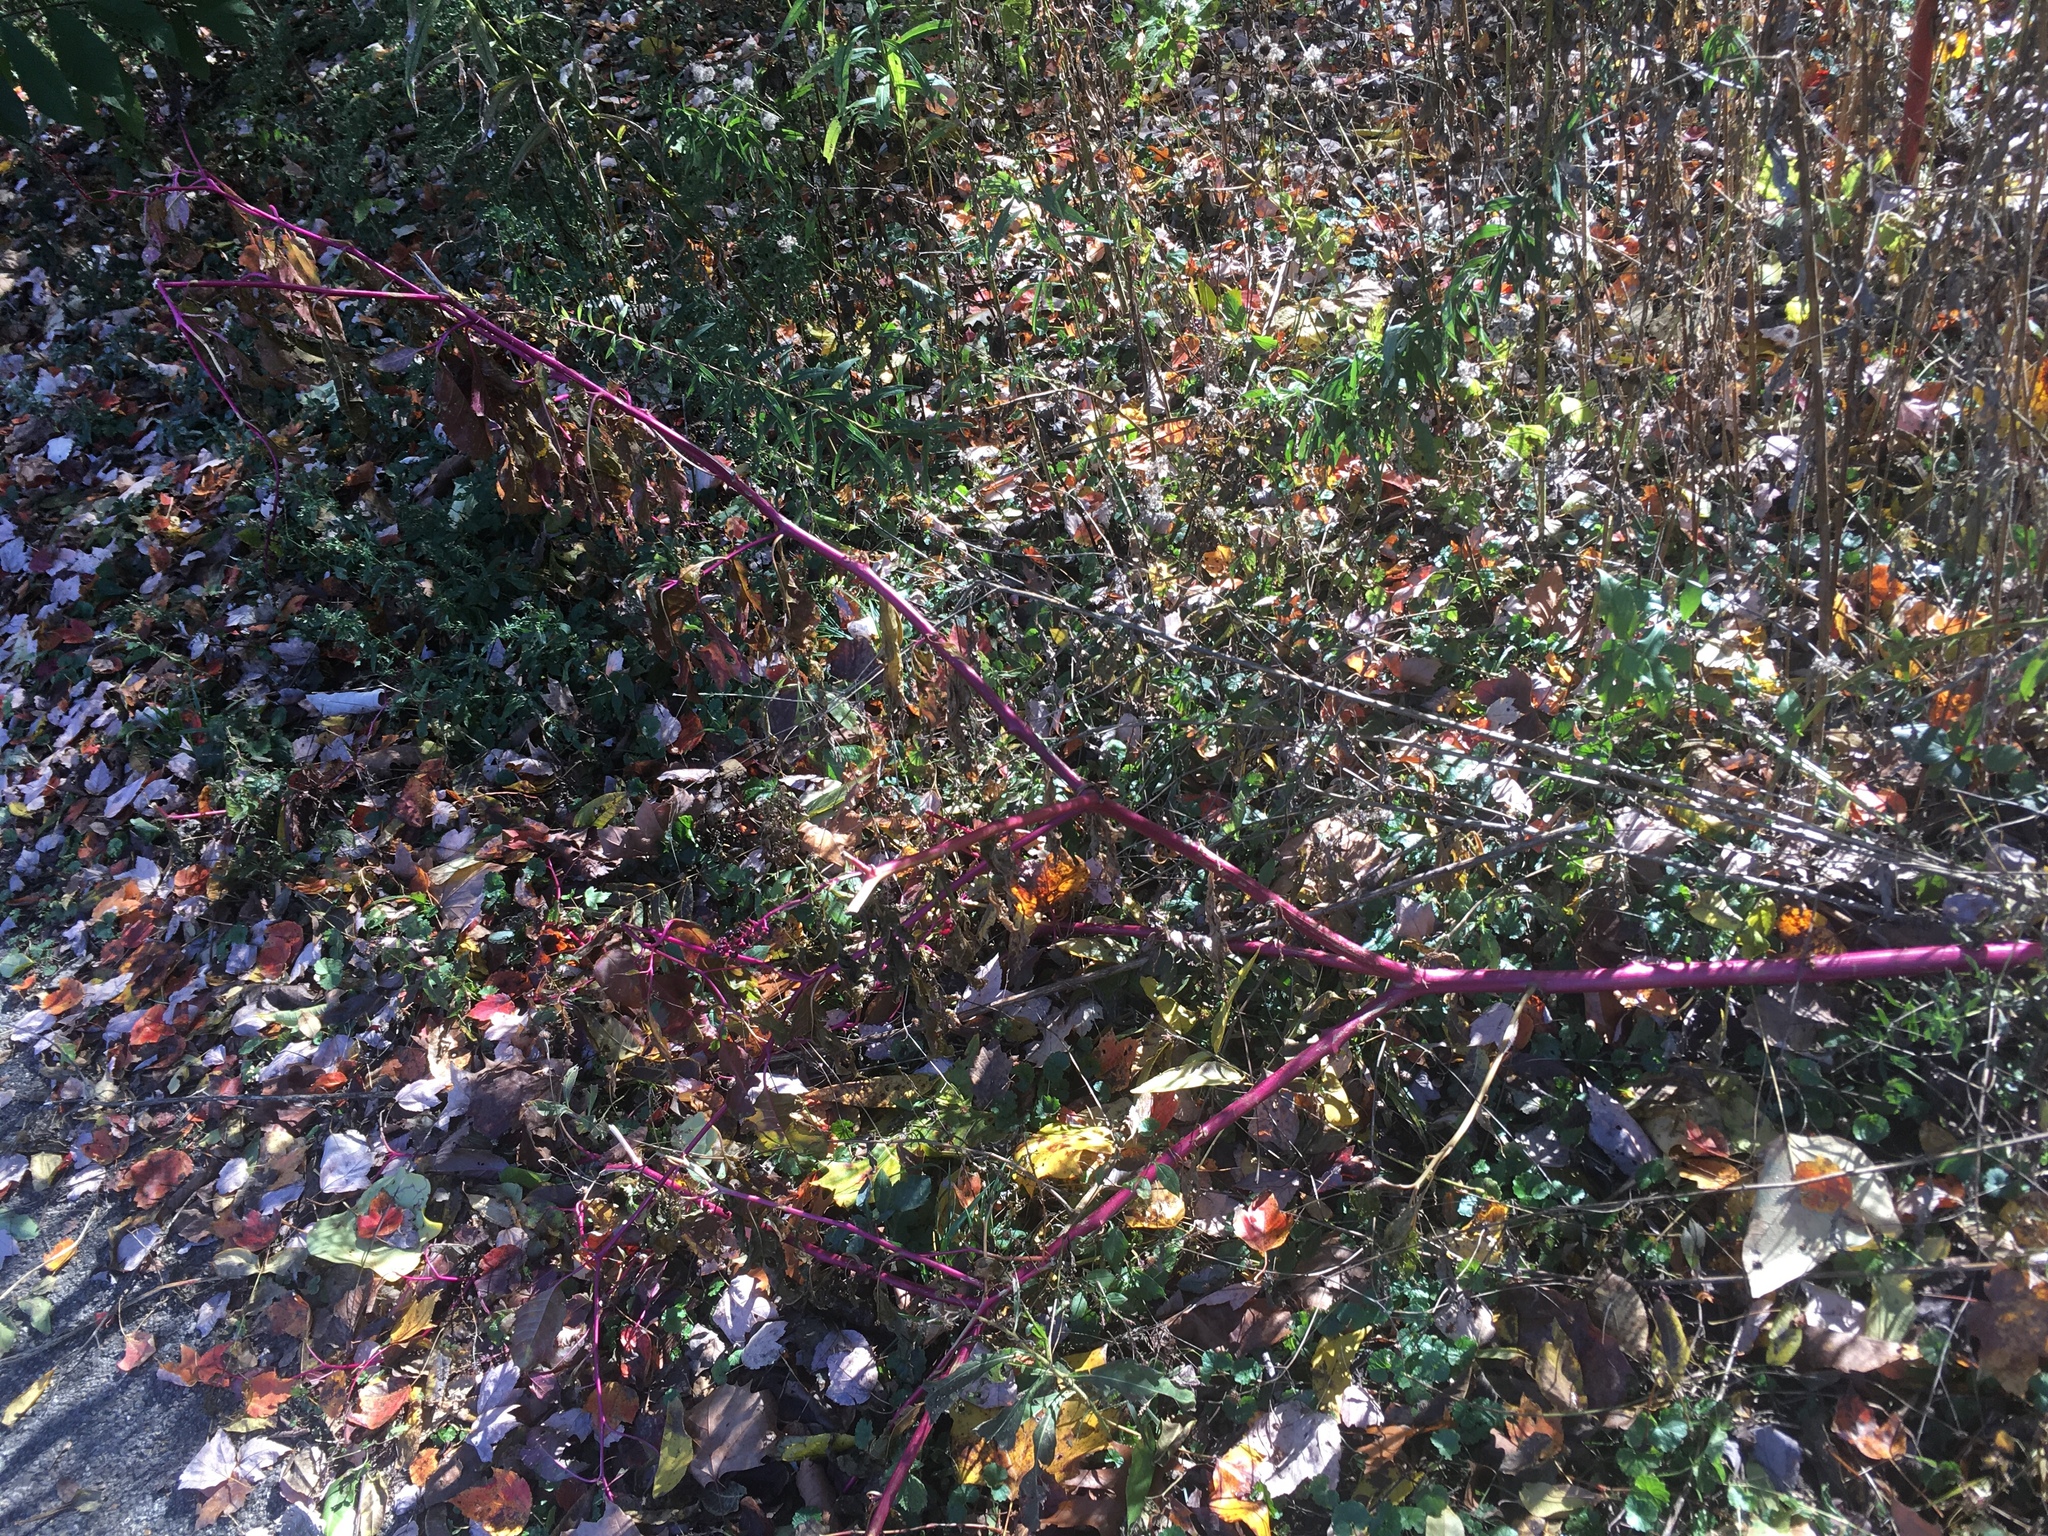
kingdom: Plantae
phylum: Tracheophyta
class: Magnoliopsida
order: Caryophyllales
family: Phytolaccaceae
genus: Phytolacca
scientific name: Phytolacca americana
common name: American pokeweed
